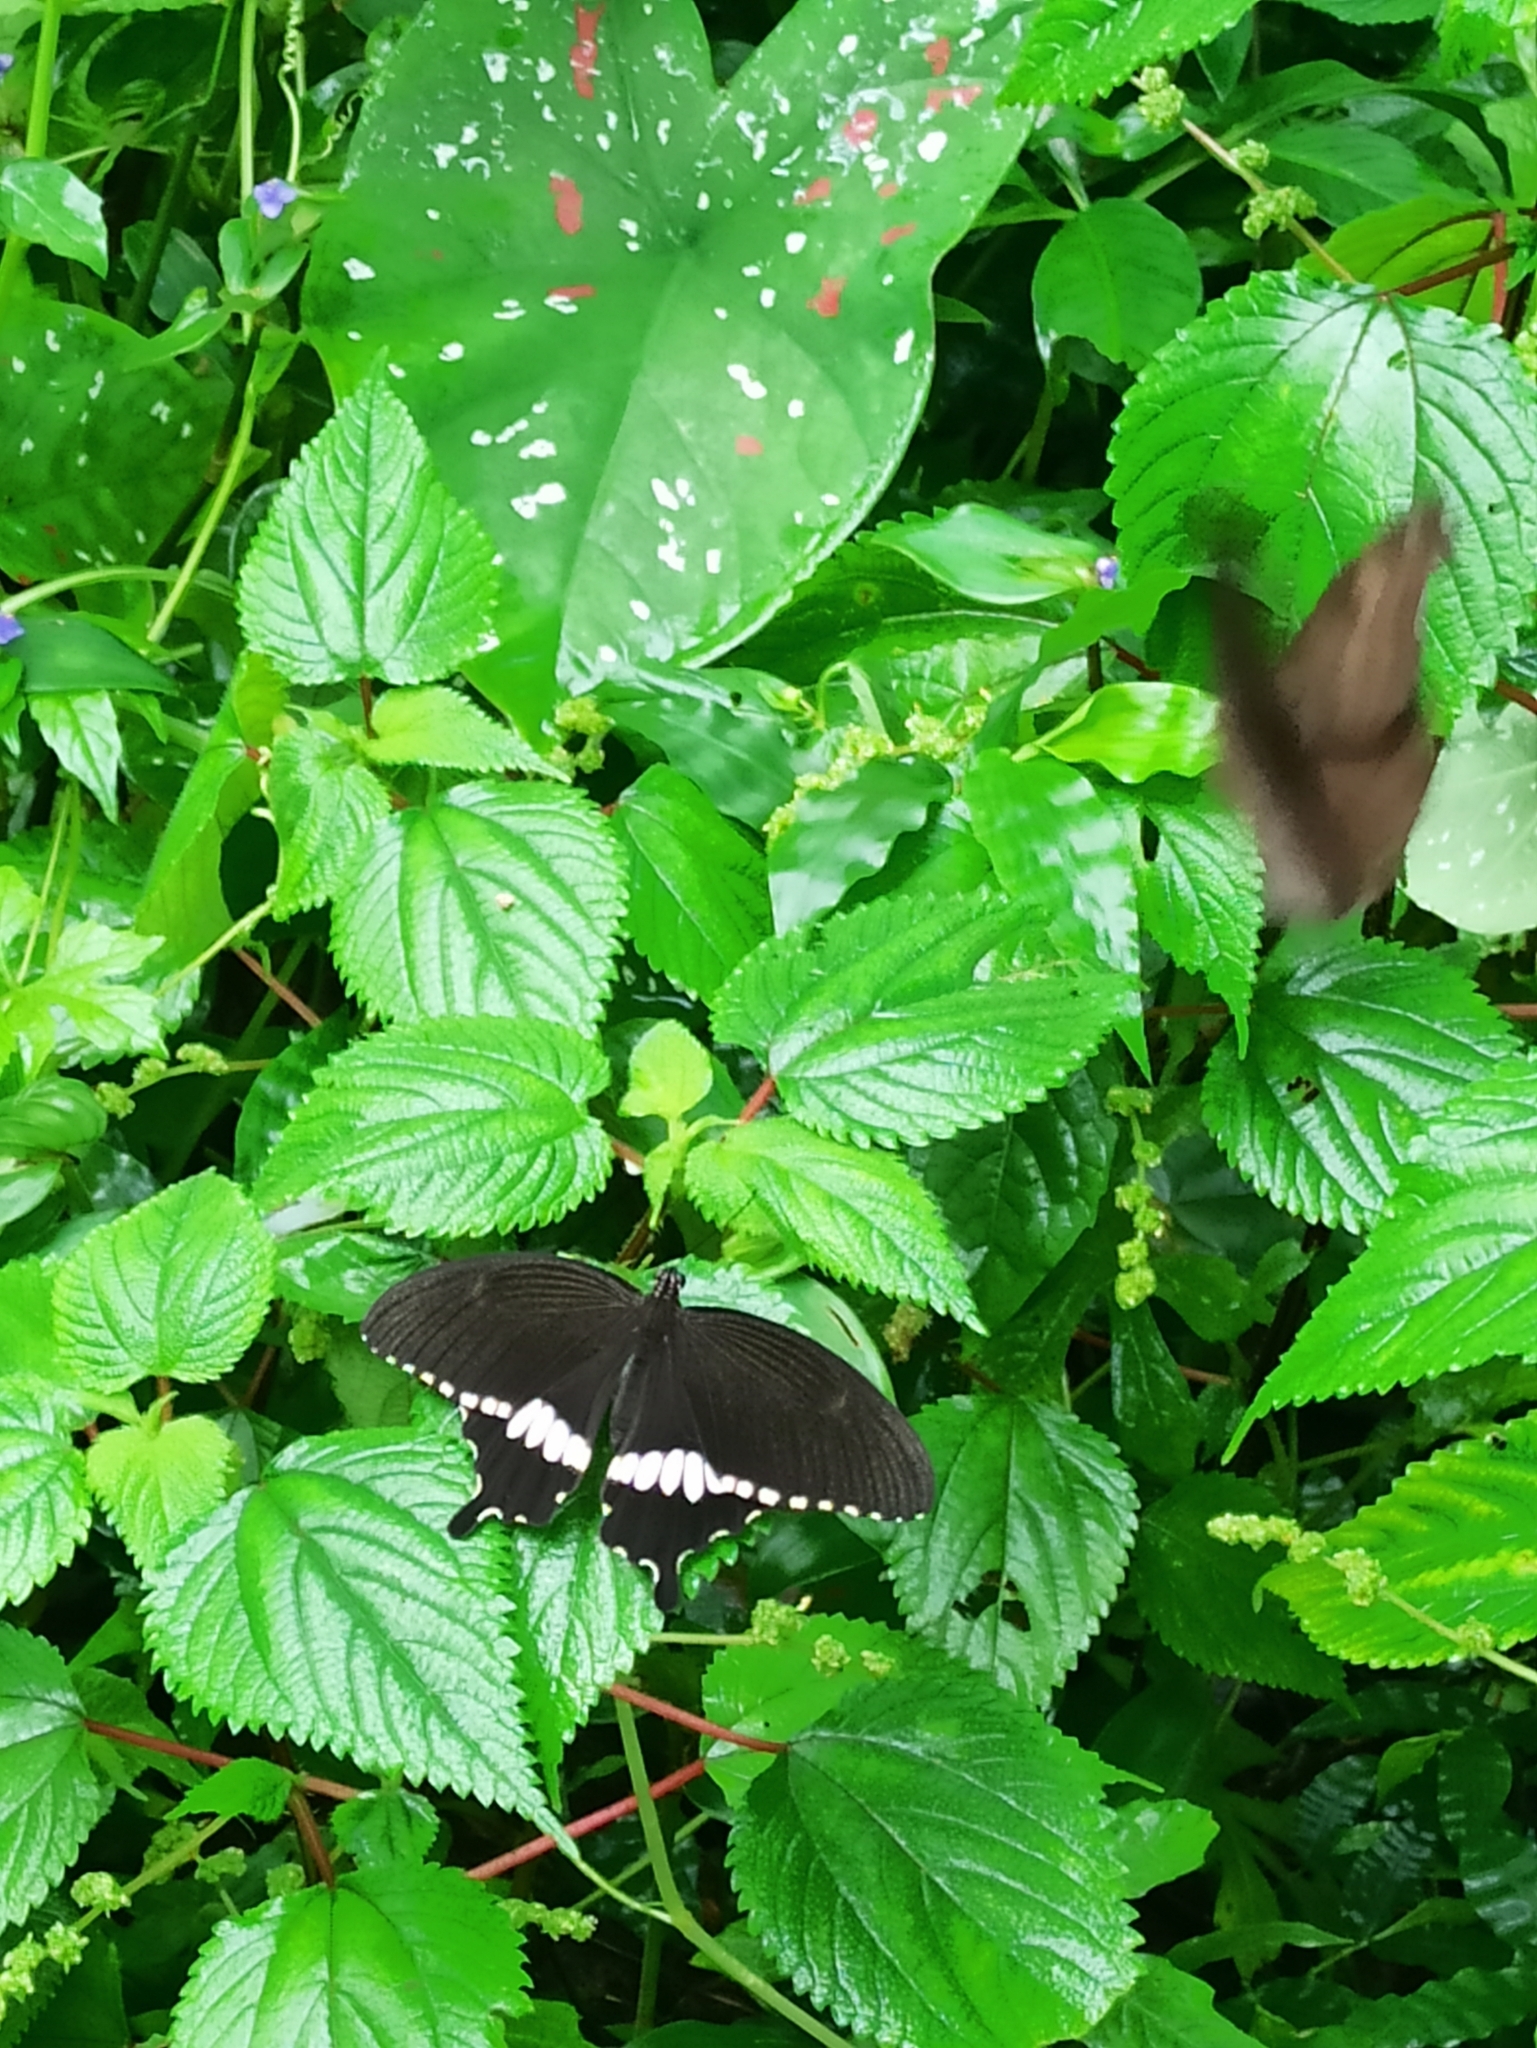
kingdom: Animalia
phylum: Arthropoda
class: Insecta
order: Lepidoptera
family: Papilionidae
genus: Papilio
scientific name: Papilio polytes
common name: Common mormon
